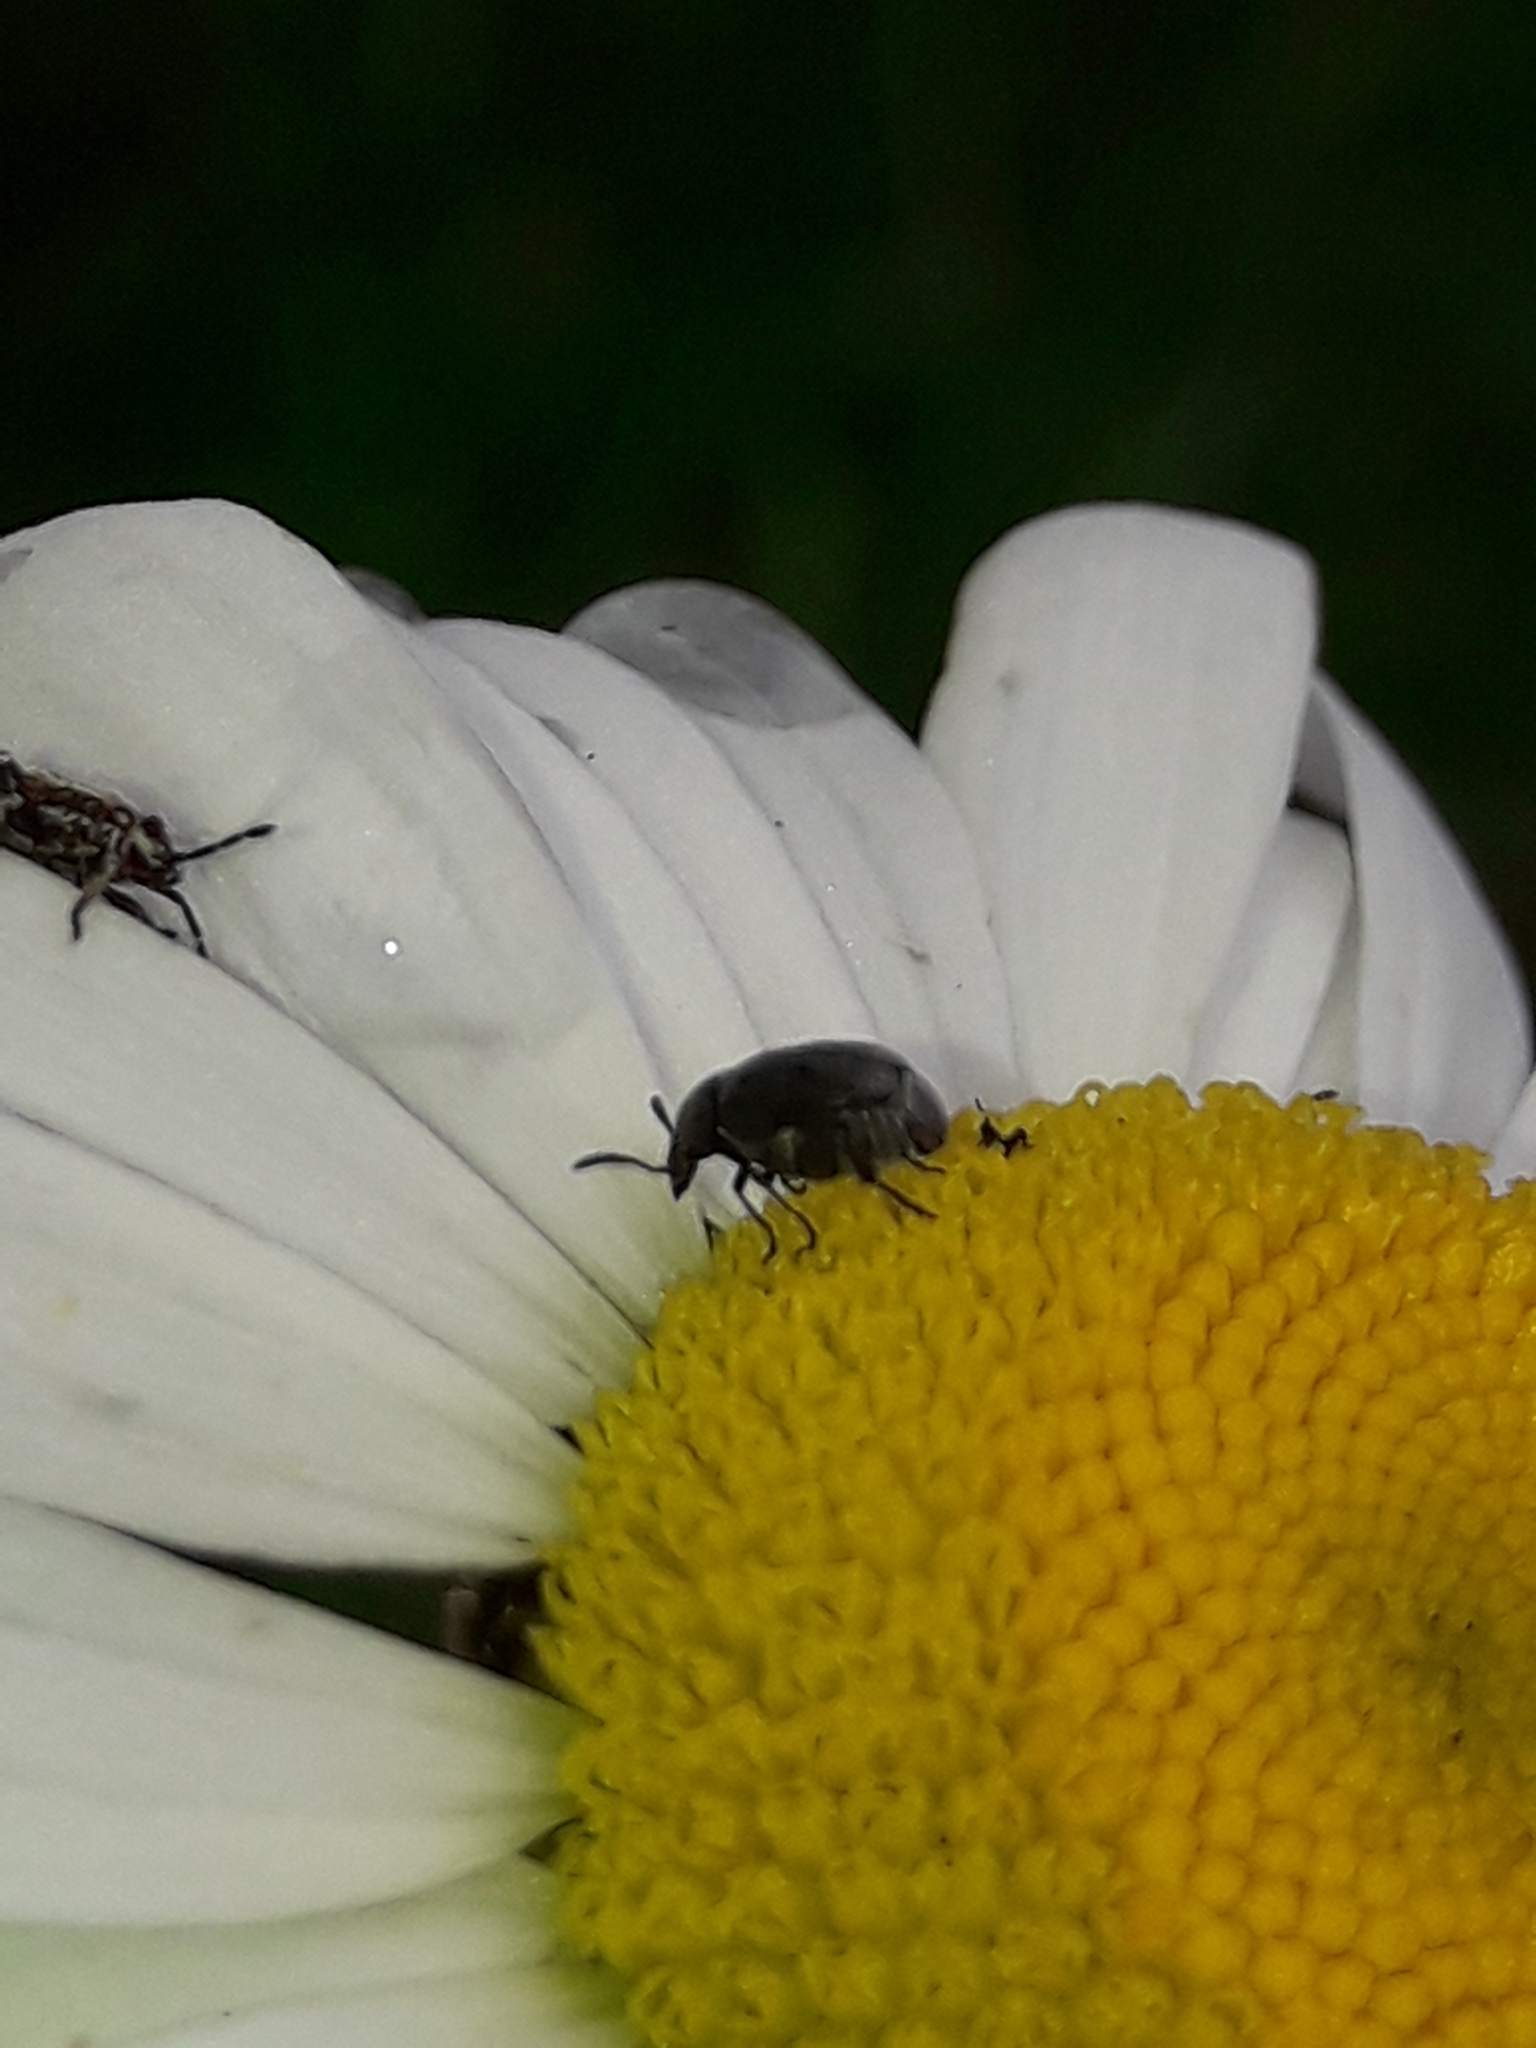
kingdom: Animalia
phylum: Arthropoda
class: Insecta
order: Coleoptera
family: Chrysomelidae
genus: Bruchidius
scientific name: Bruchidius villosus
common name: Scotch broom bruchid
